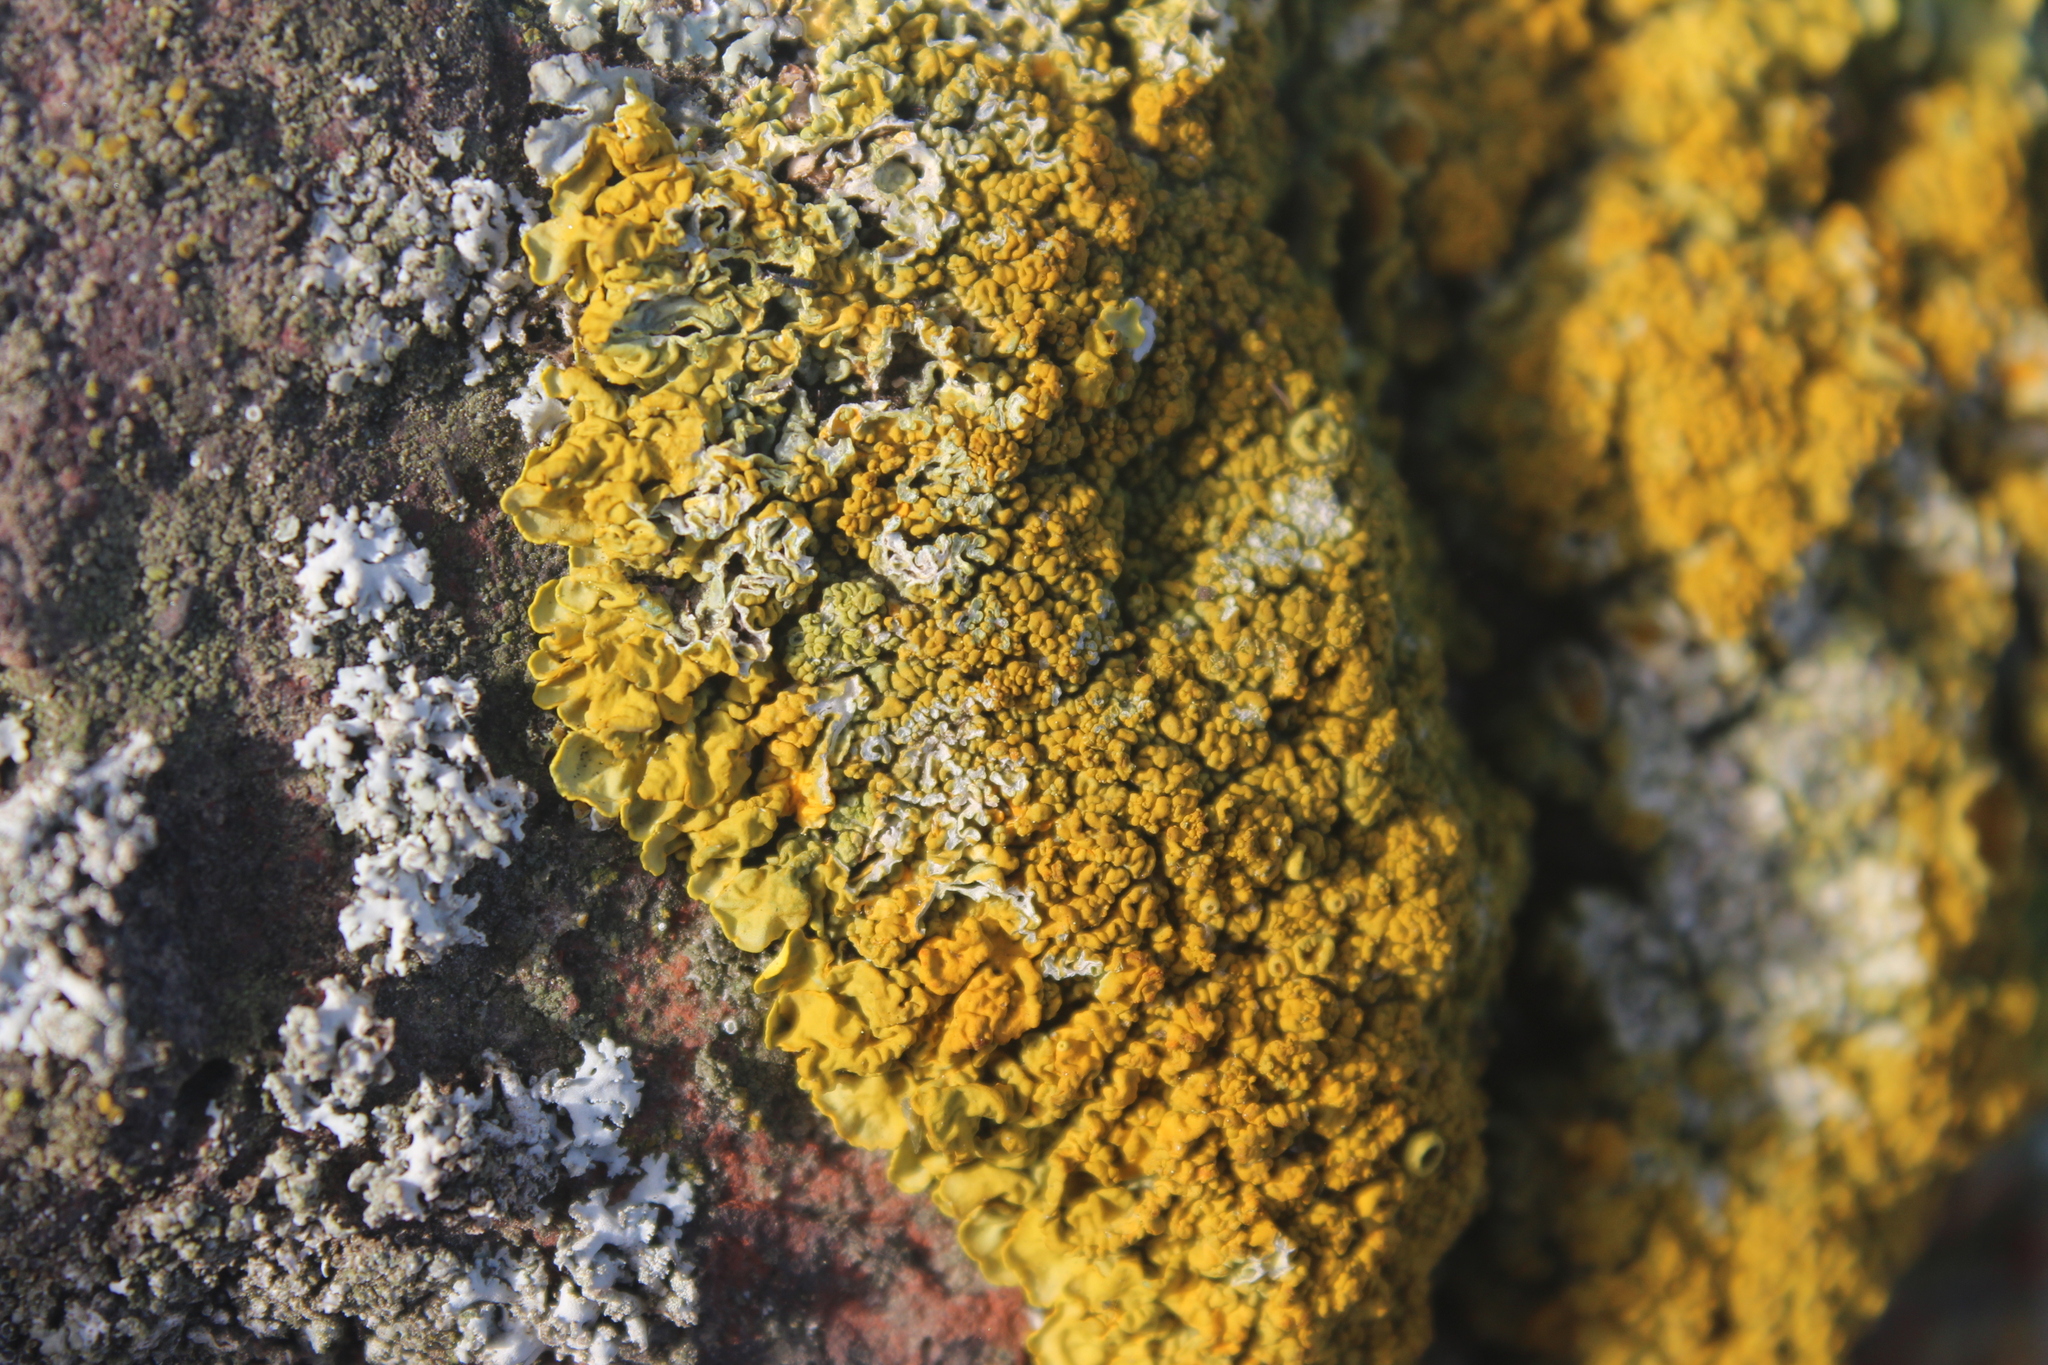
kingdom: Fungi
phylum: Ascomycota
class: Lecanoromycetes
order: Teloschistales
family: Teloschistaceae
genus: Xanthoria
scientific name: Xanthoria calcicola
